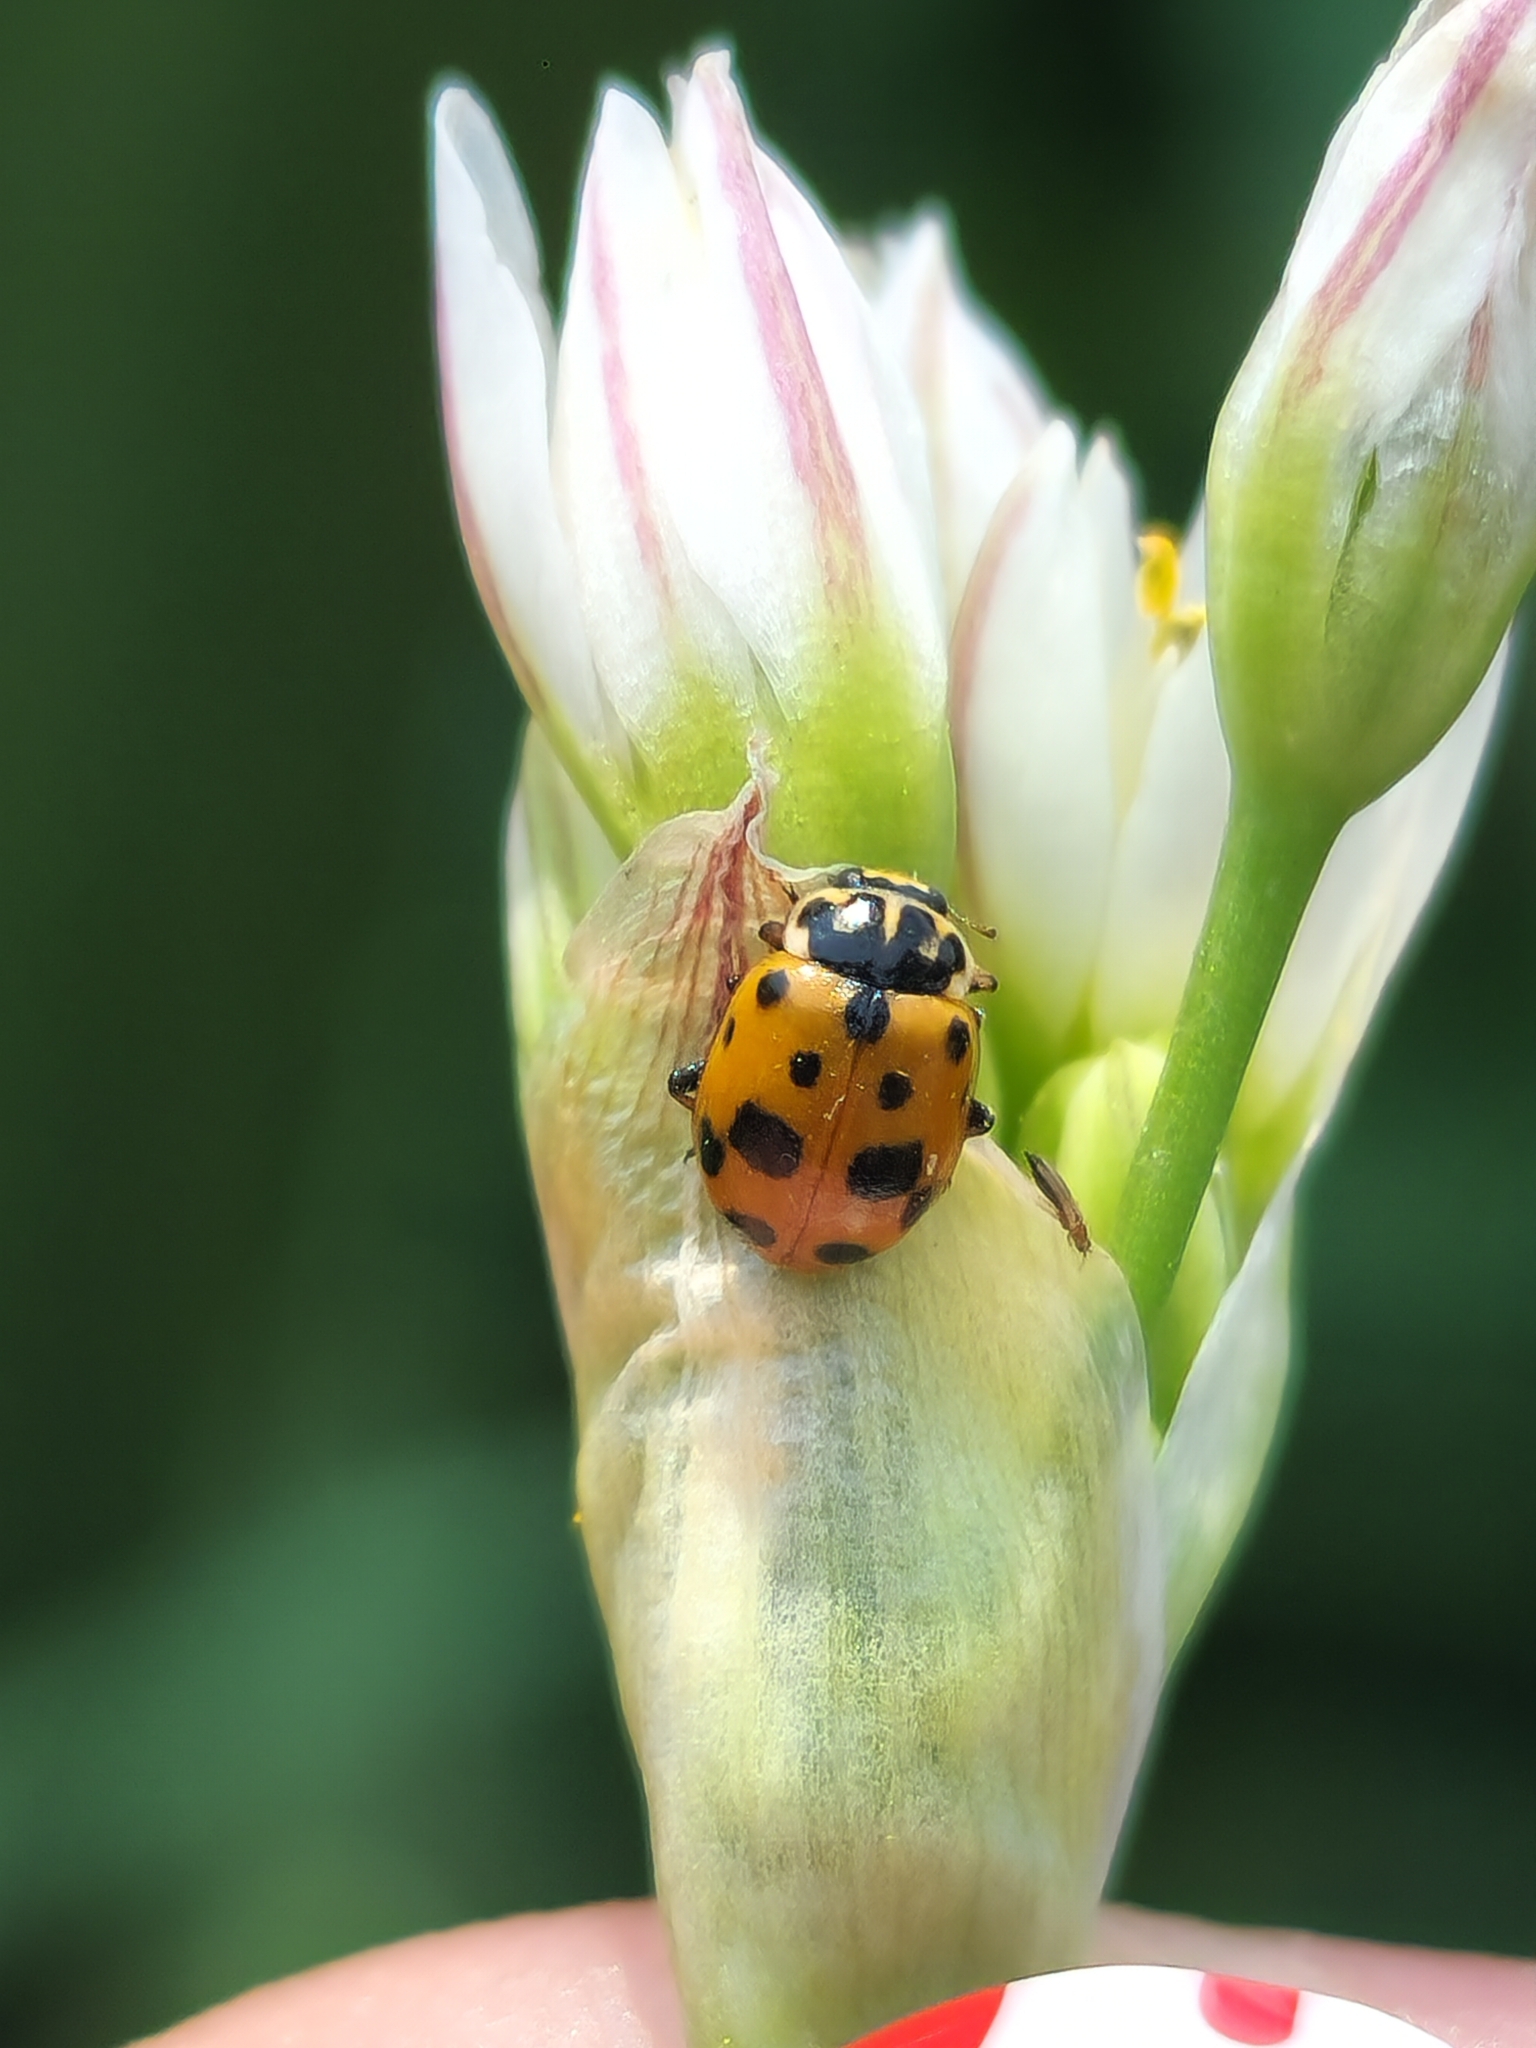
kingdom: Animalia
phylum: Arthropoda
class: Insecta
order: Coleoptera
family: Coccinellidae
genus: Hippodamia
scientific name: Hippodamia variegata
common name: Ladybird beetle
